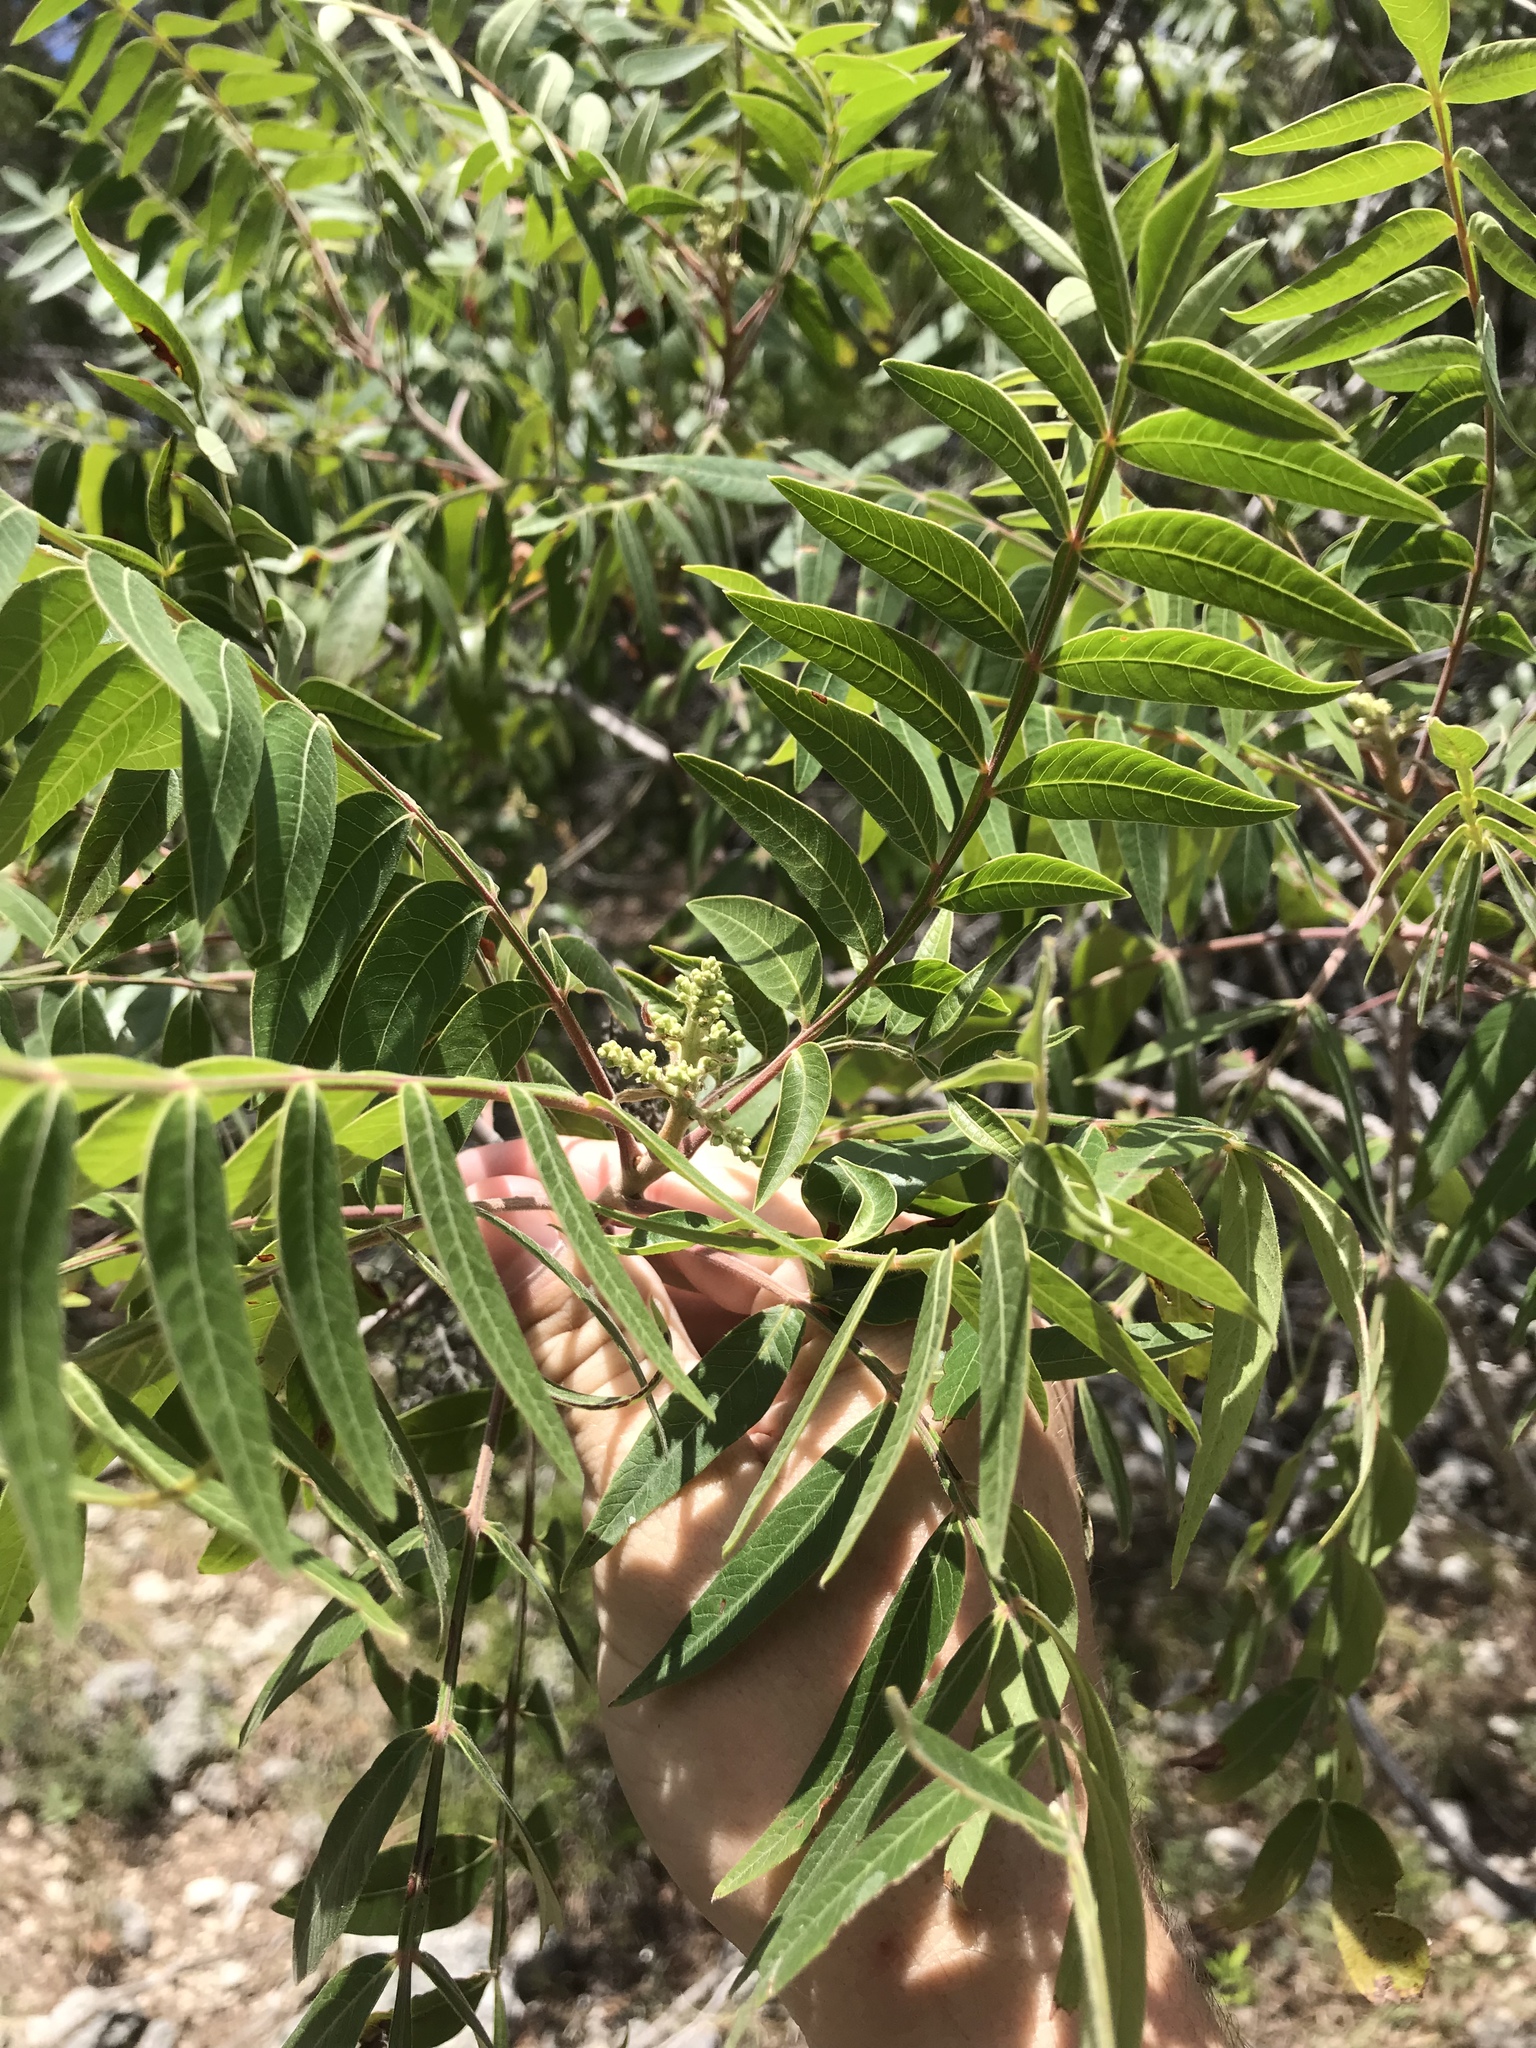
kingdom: Plantae
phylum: Tracheophyta
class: Magnoliopsida
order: Sapindales
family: Anacardiaceae
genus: Rhus
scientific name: Rhus lanceolata
